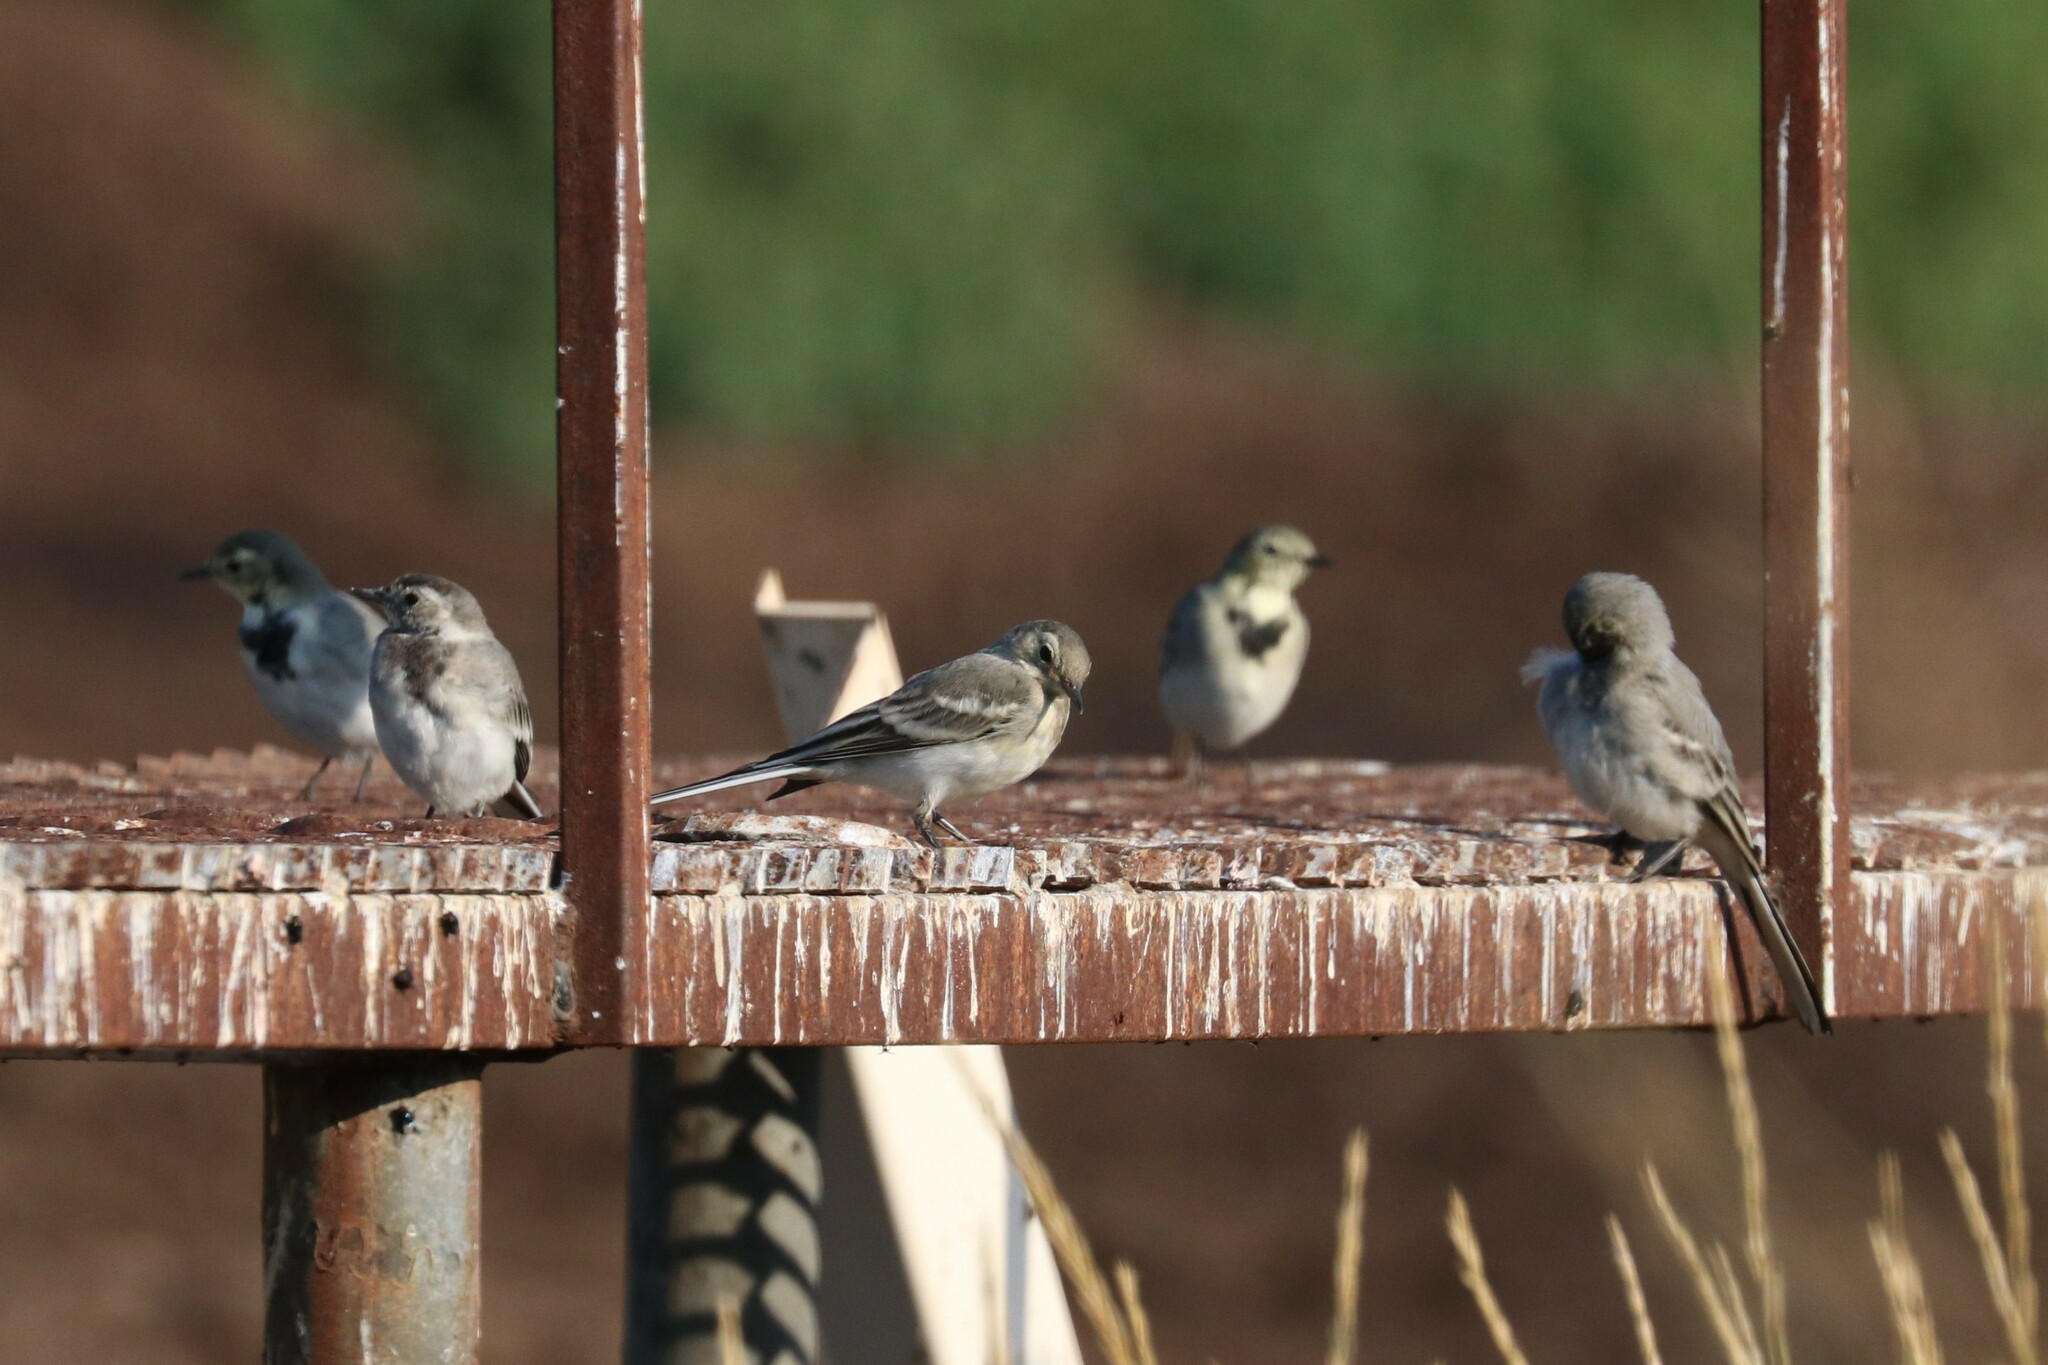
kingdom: Animalia
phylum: Chordata
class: Aves
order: Passeriformes
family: Motacillidae
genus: Motacilla
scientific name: Motacilla alba
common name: White wagtail
